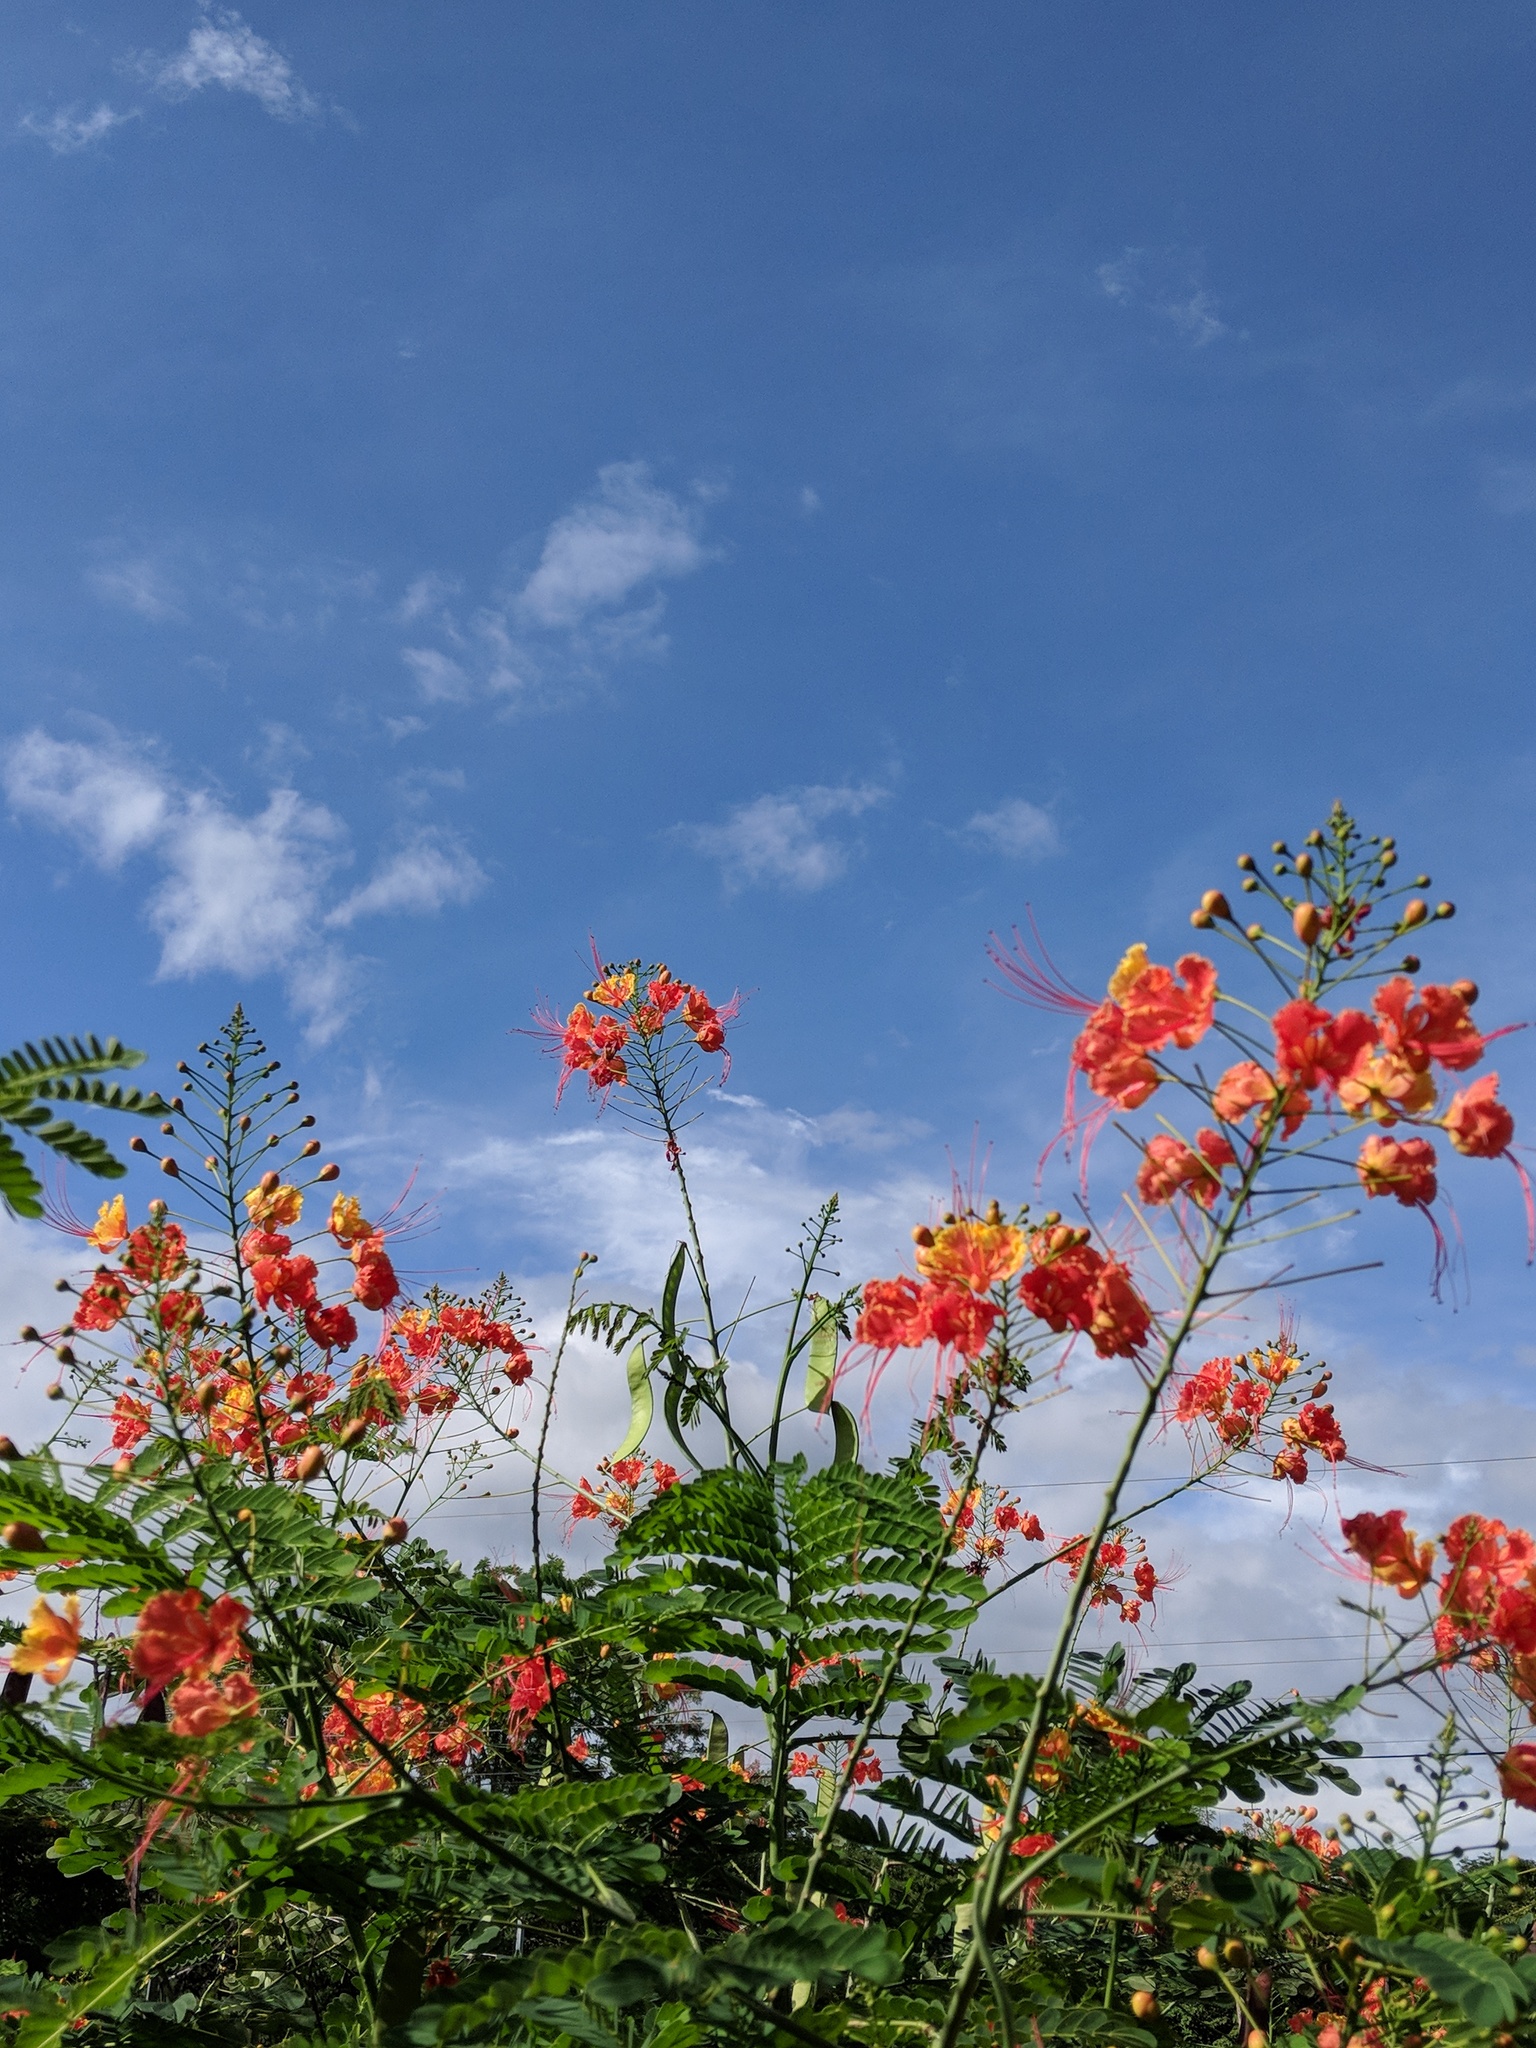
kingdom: Plantae
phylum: Tracheophyta
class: Magnoliopsida
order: Fabales
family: Fabaceae
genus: Caesalpinia
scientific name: Caesalpinia pulcherrima
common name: Pride-of-barbados
